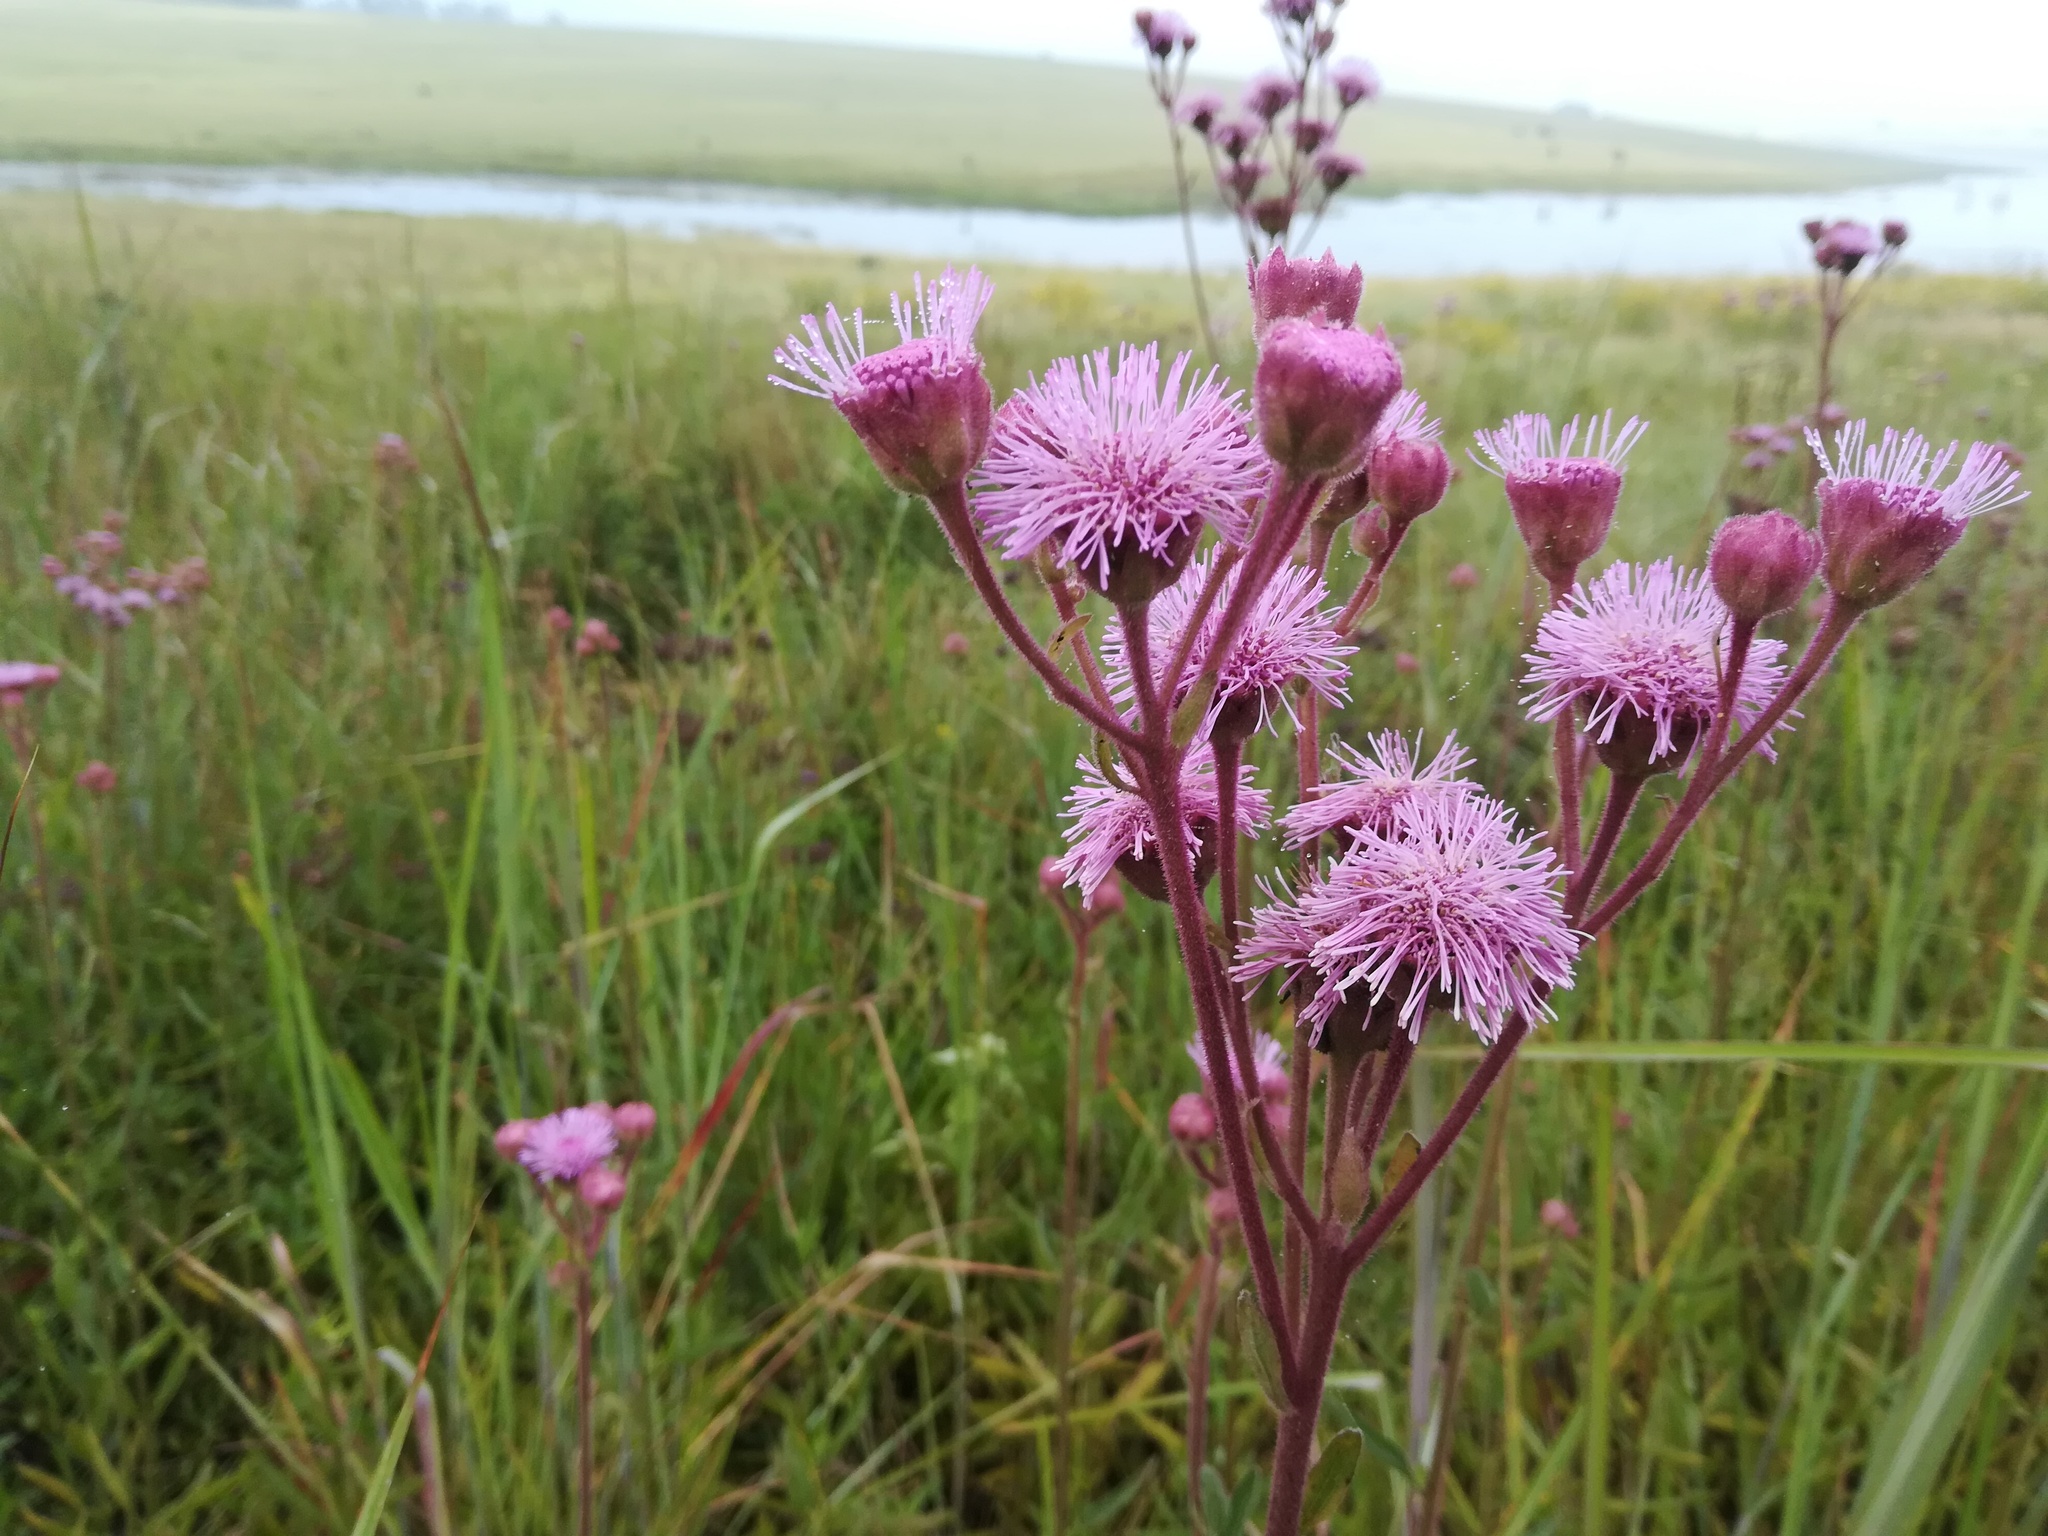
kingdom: Plantae
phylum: Tracheophyta
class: Magnoliopsida
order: Asterales
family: Asteraceae
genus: Campuloclinium
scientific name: Campuloclinium macrocephalum
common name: Pompomweed
